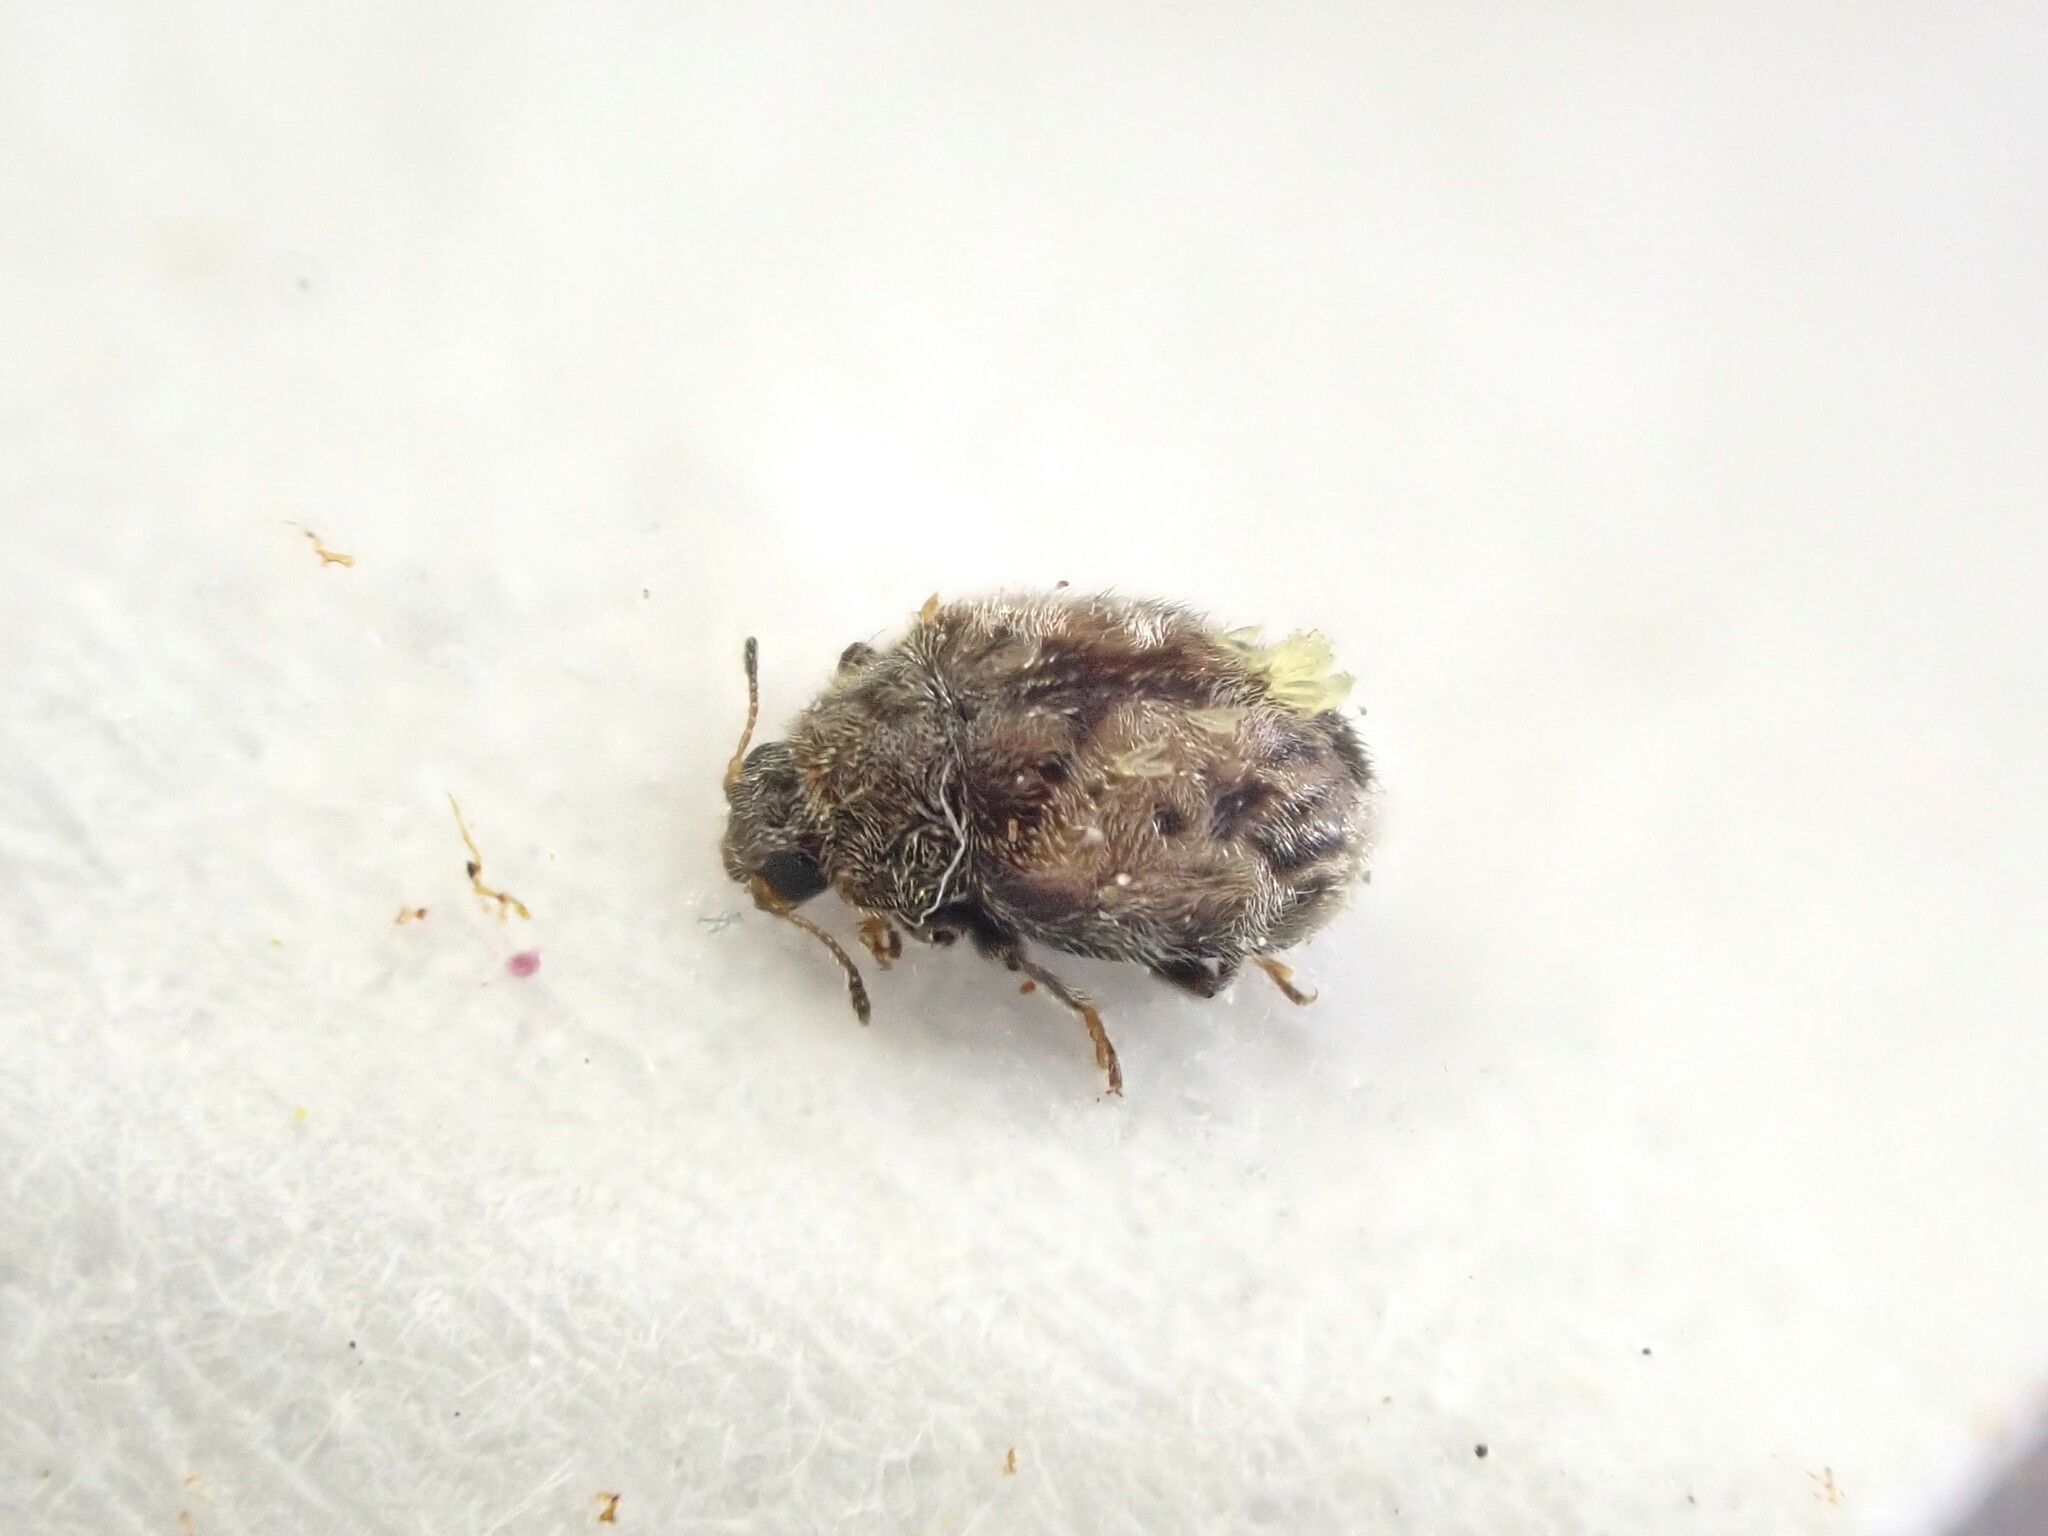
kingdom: Animalia
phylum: Arthropoda
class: Insecta
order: Coleoptera
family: Coccinellidae
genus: Rhyzobius
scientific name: Rhyzobius consors
